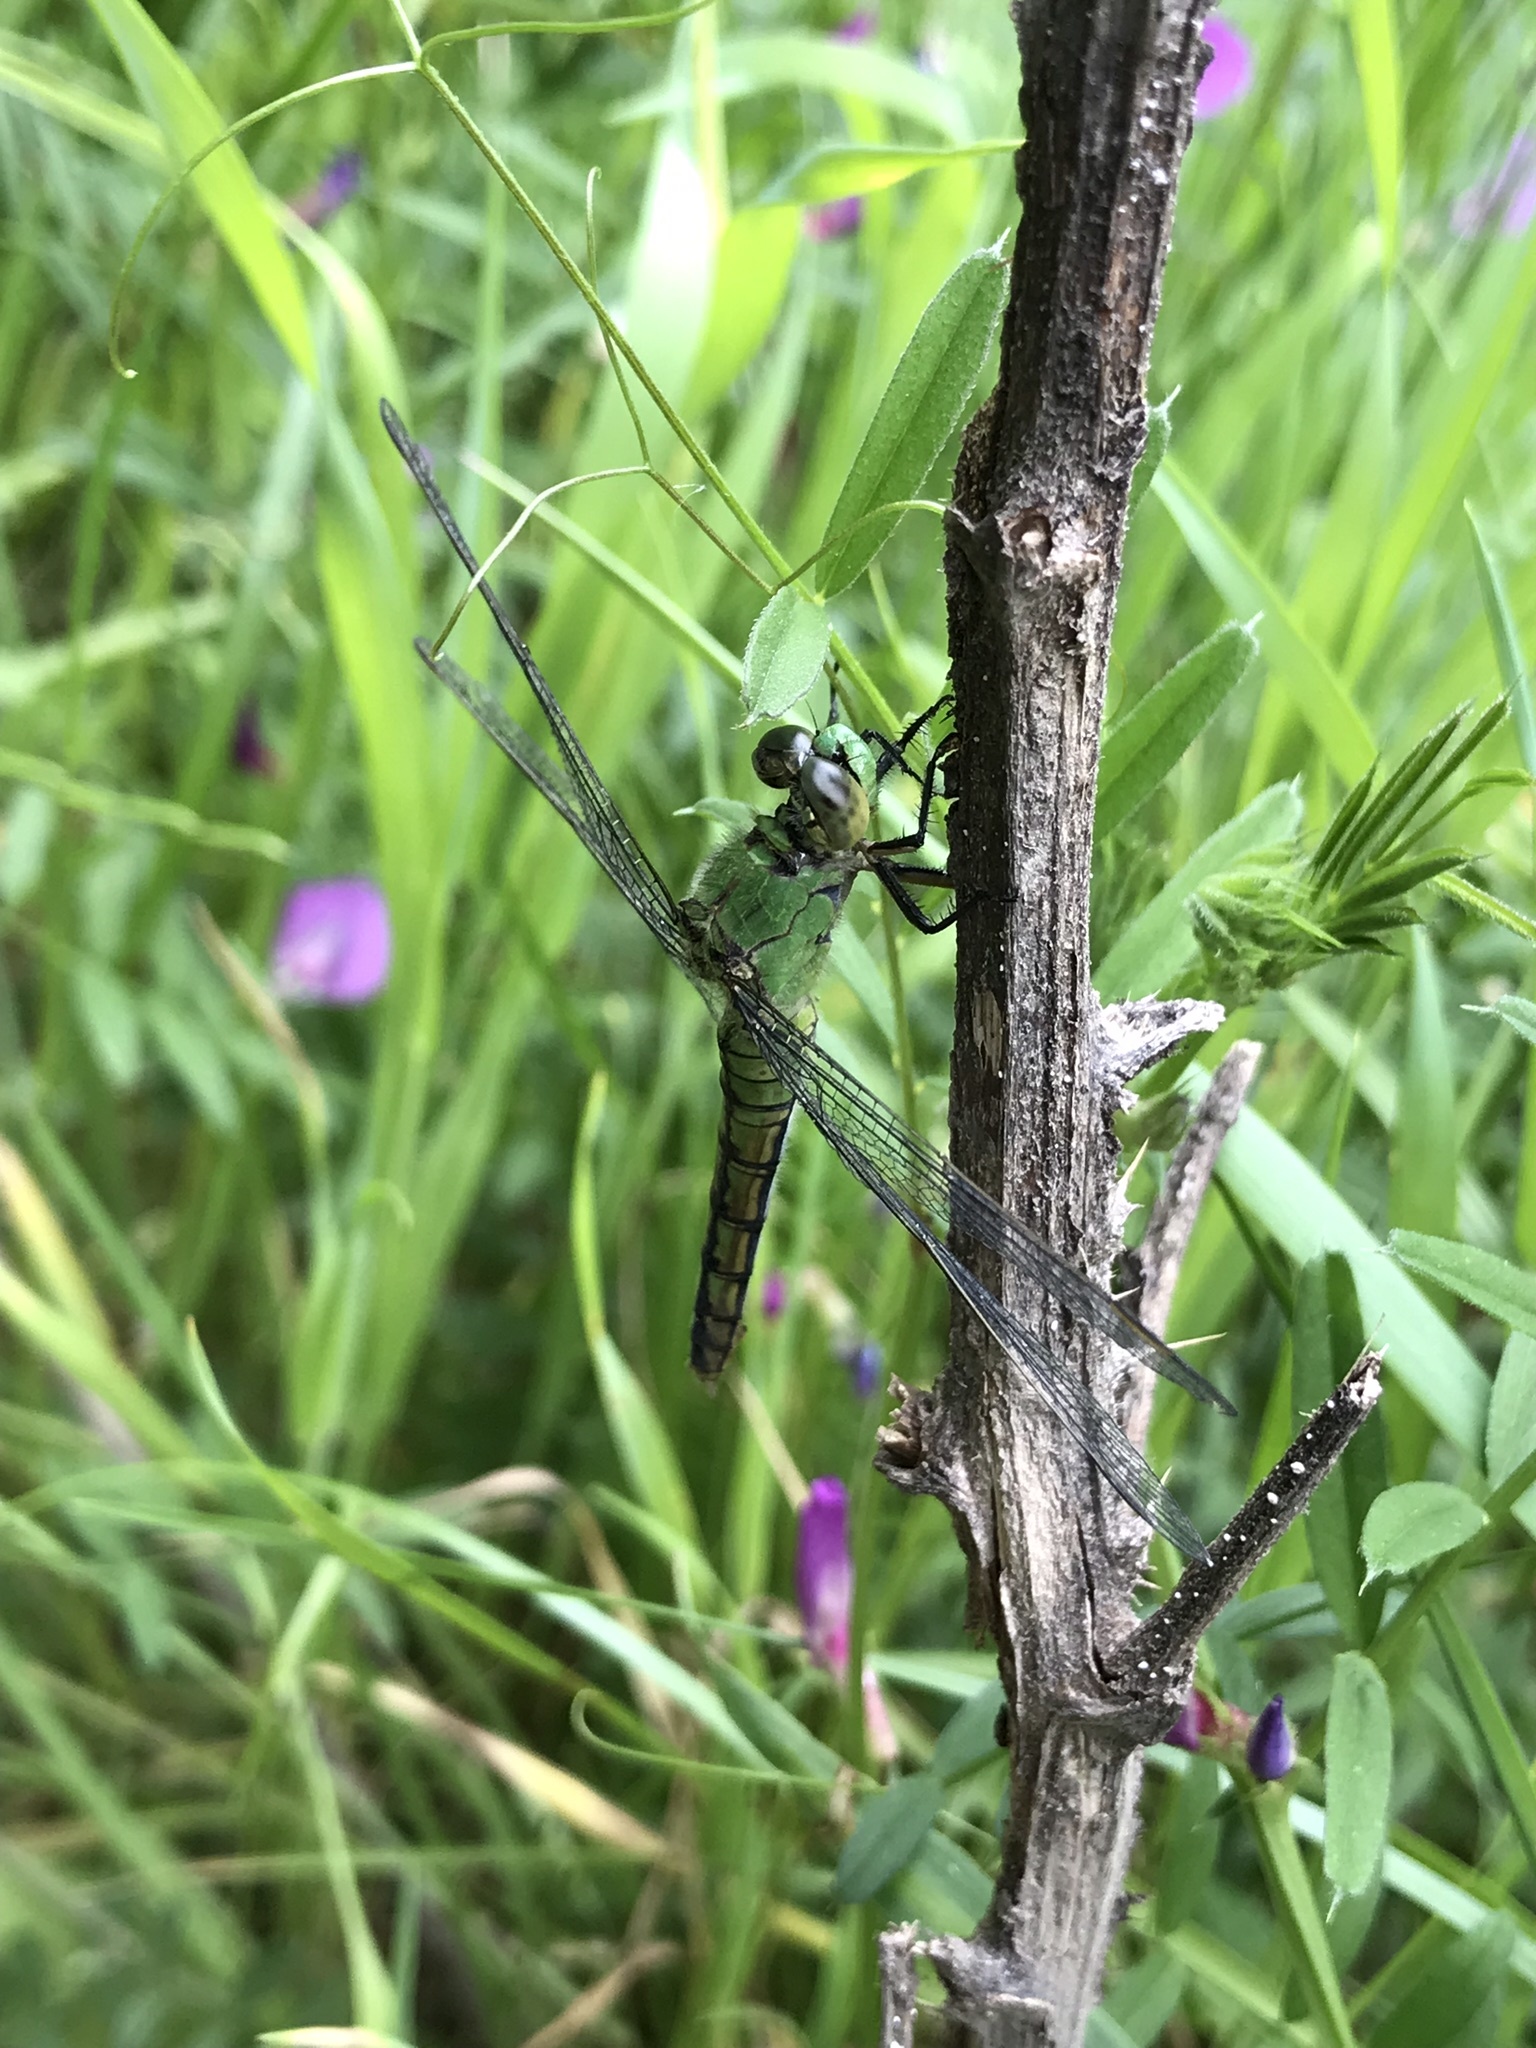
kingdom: Animalia
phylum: Arthropoda
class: Insecta
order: Odonata
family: Libellulidae
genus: Erythemis
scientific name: Erythemis collocata
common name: Western pondhawk
